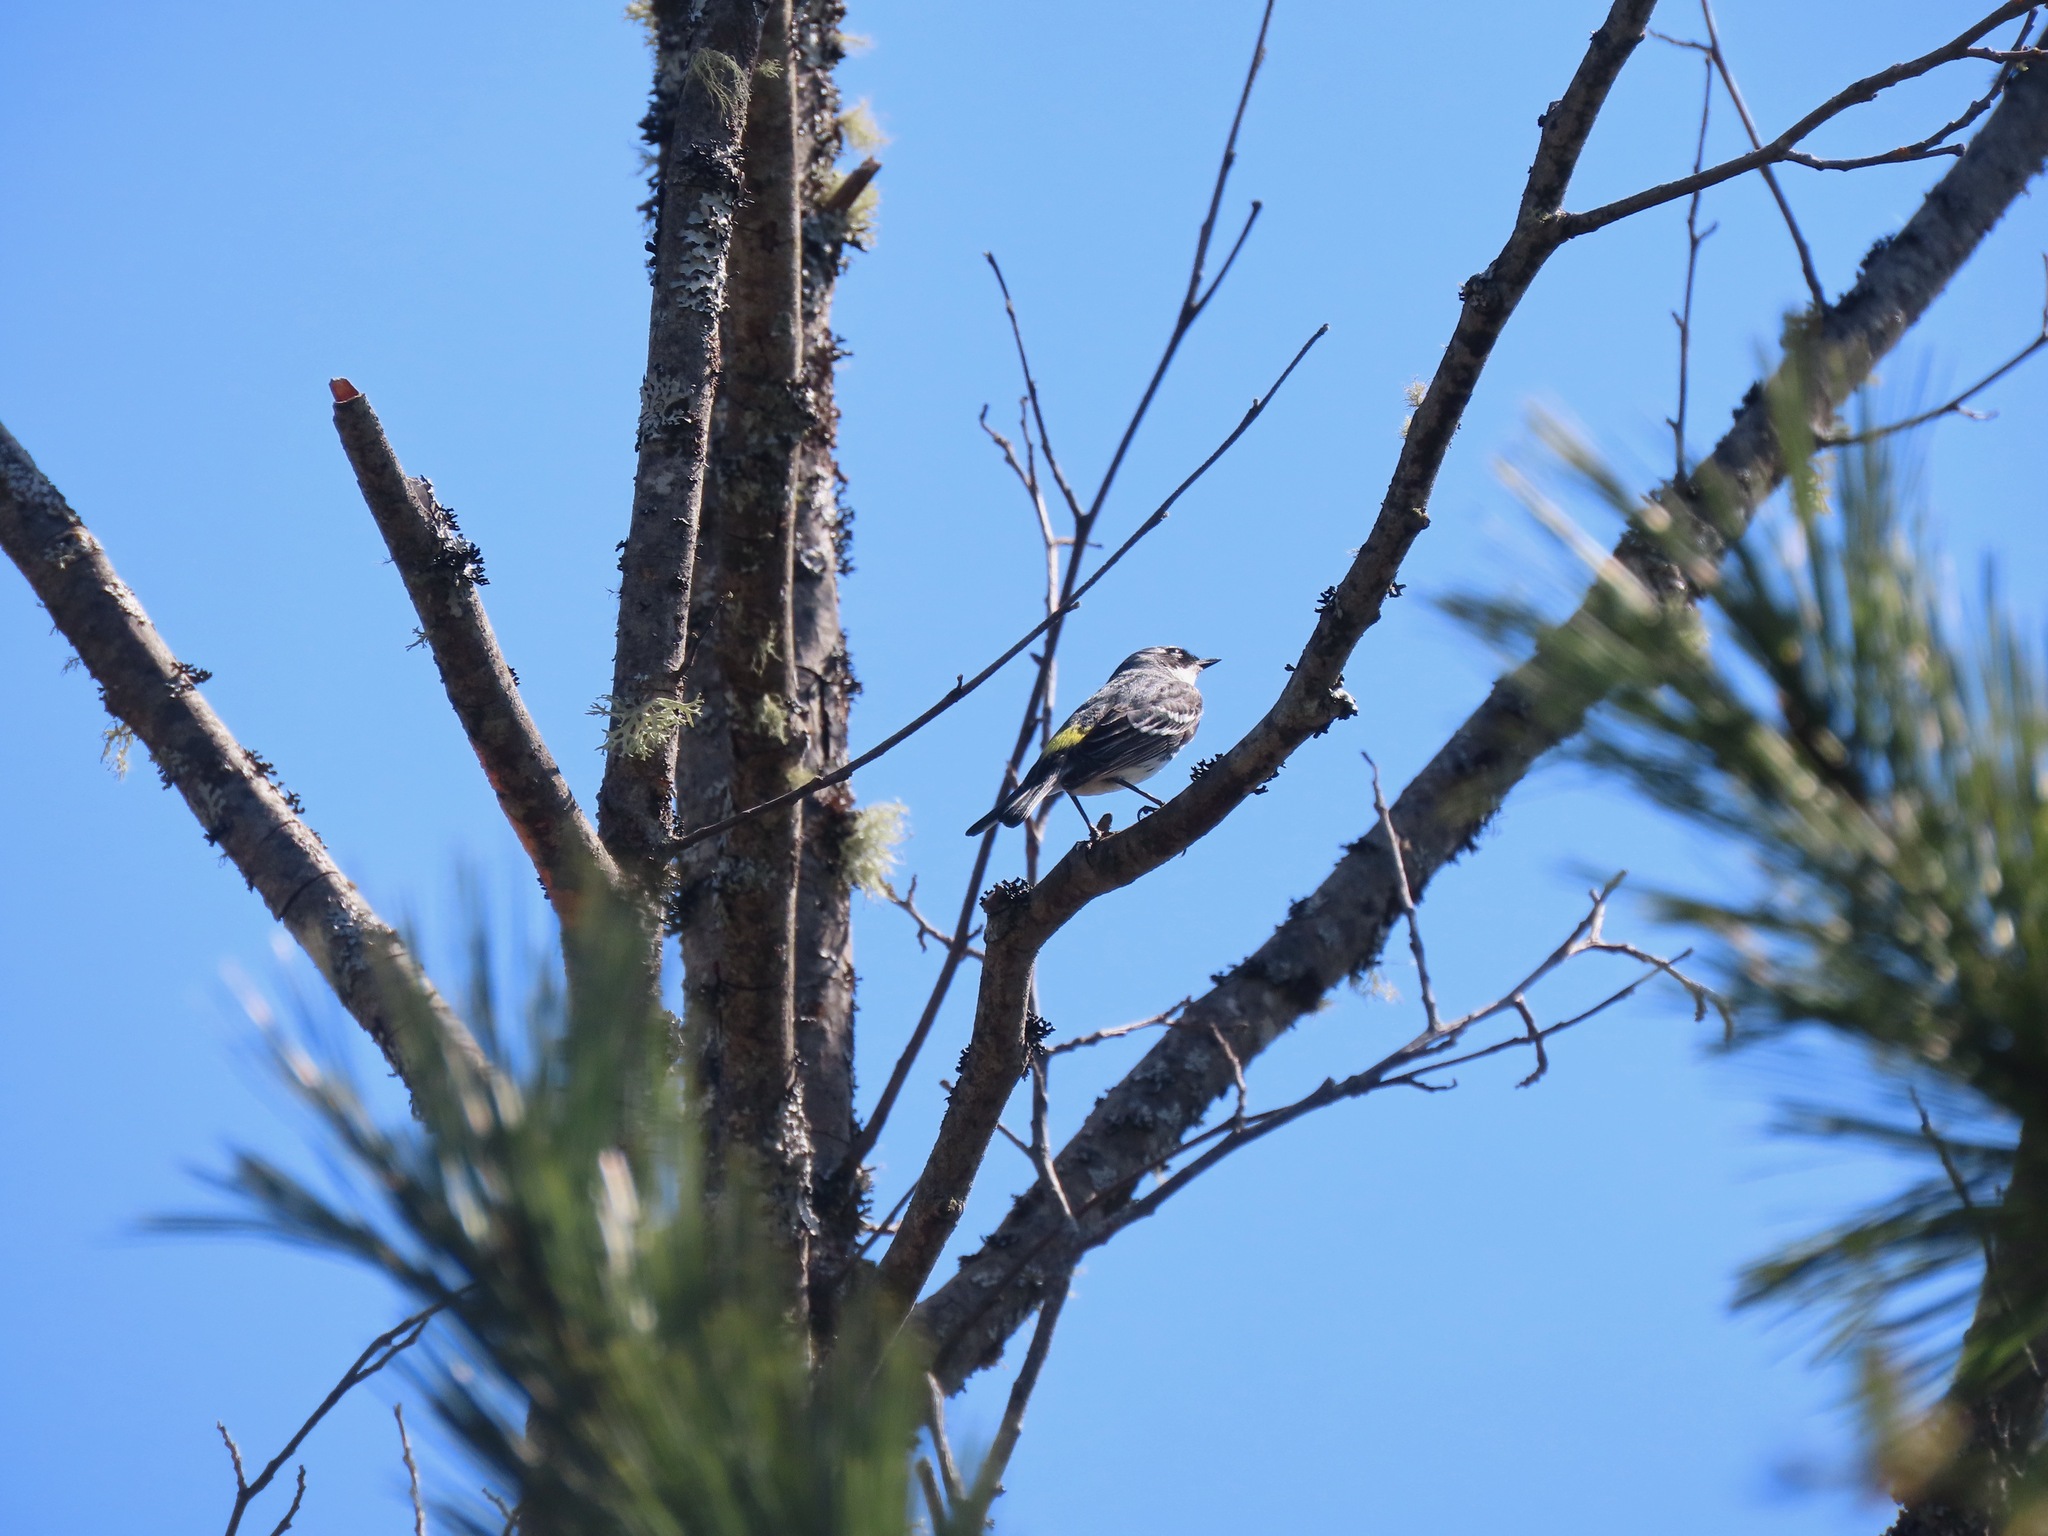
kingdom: Animalia
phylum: Chordata
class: Aves
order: Passeriformes
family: Parulidae
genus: Setophaga
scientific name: Setophaga coronata
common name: Myrtle warbler
